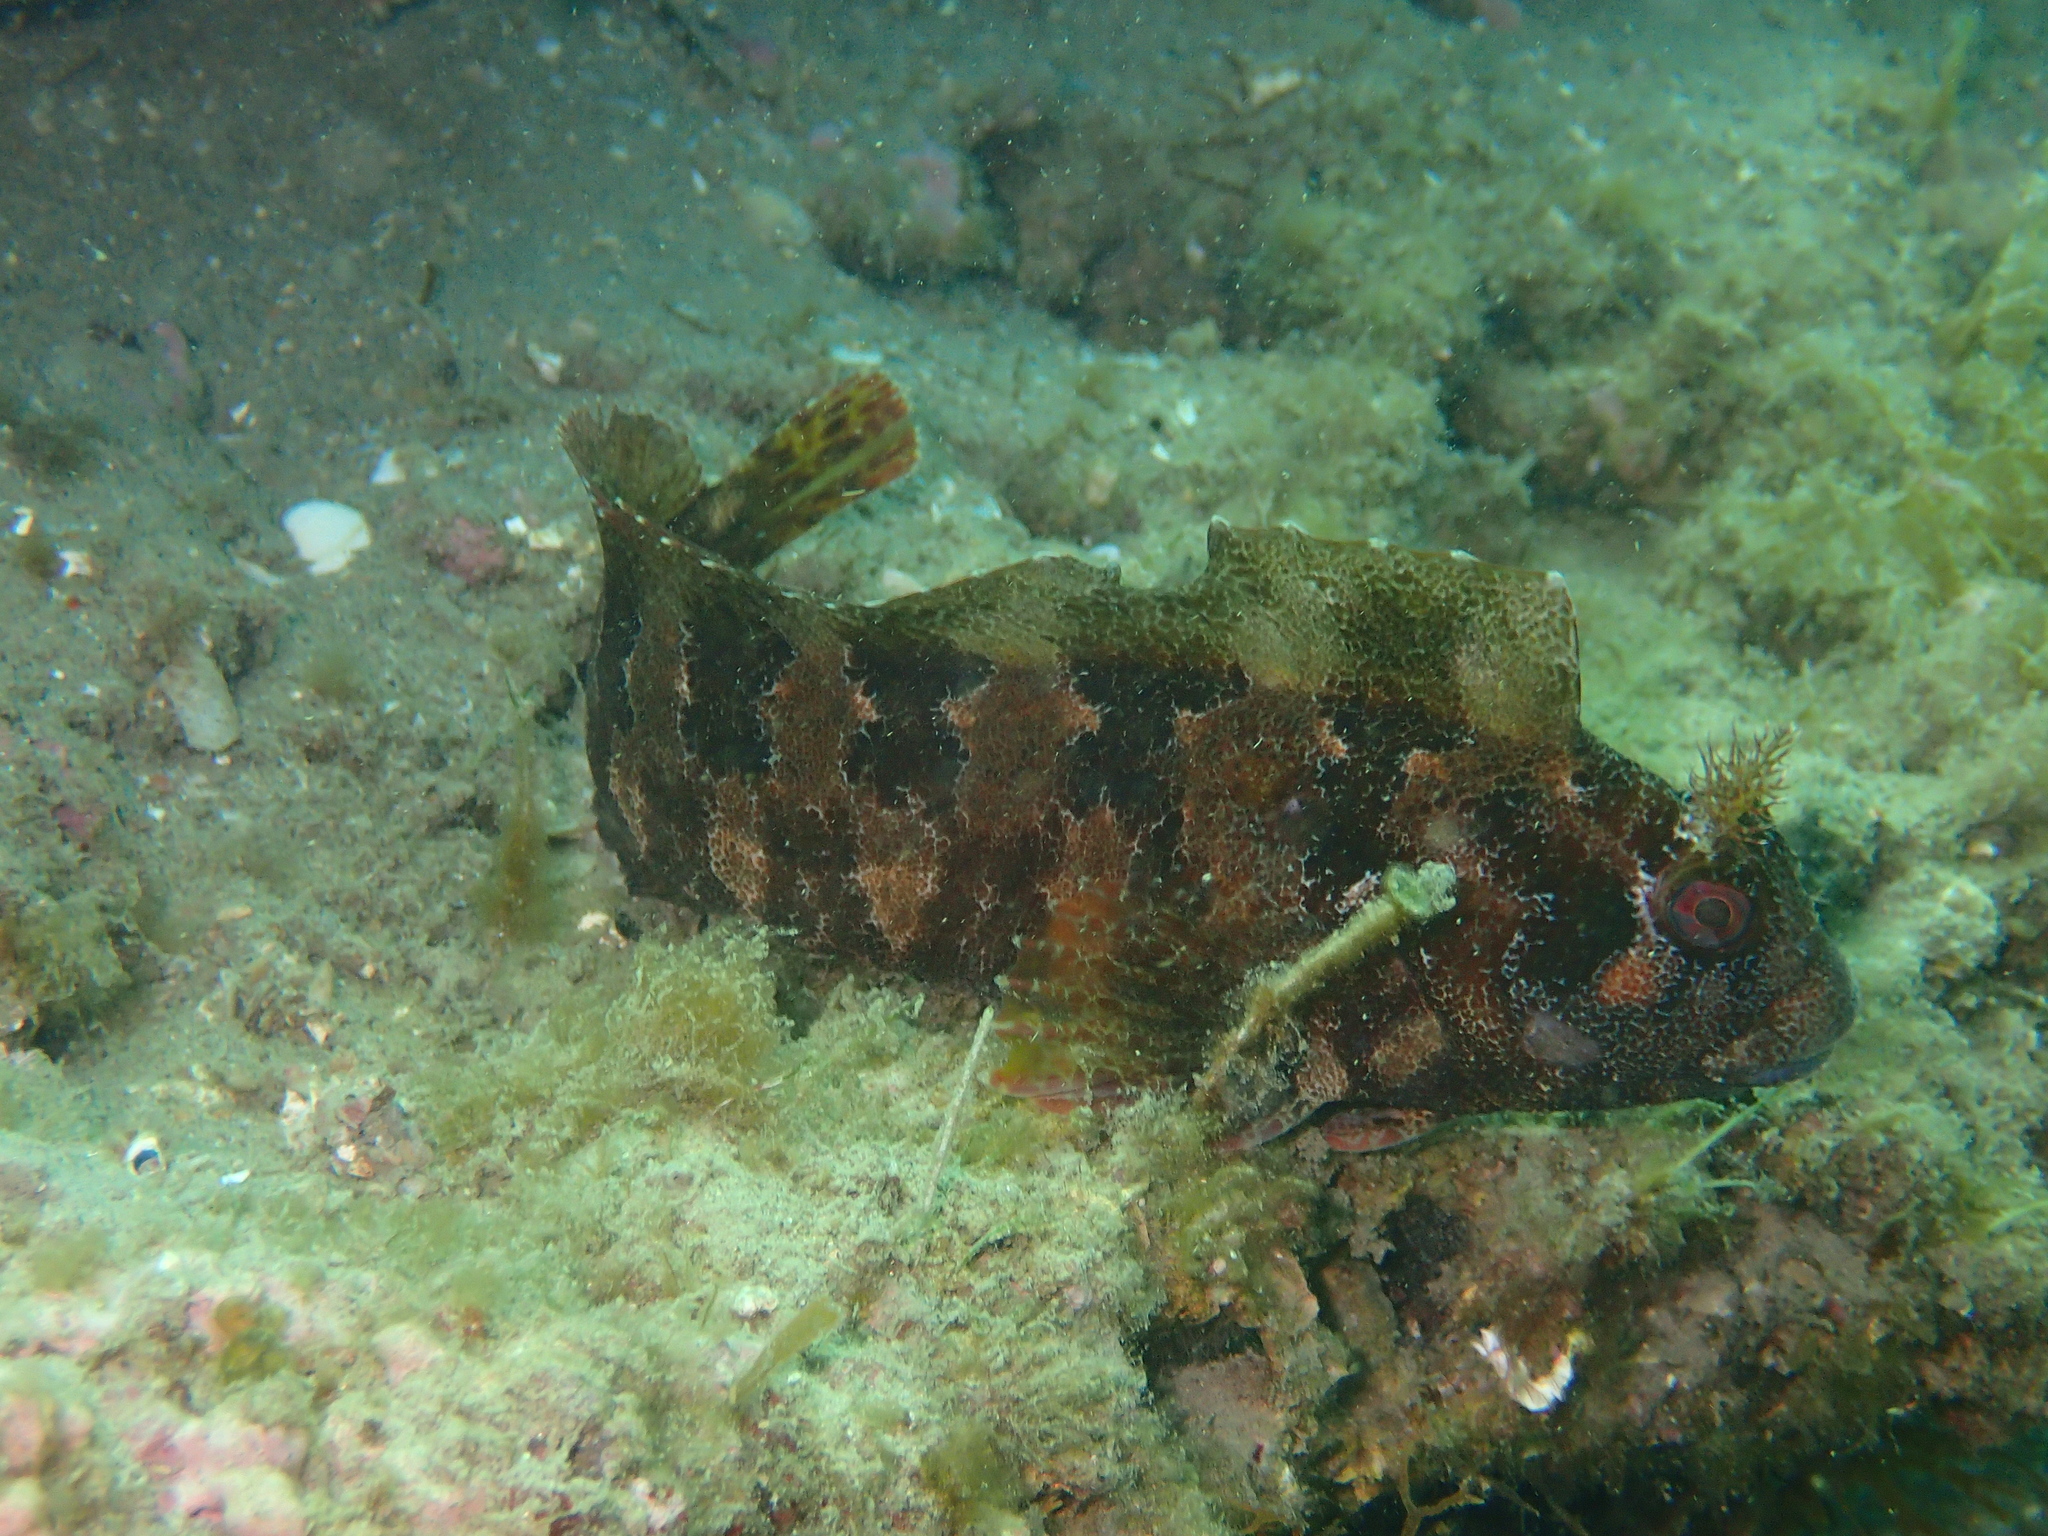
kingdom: Animalia
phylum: Chordata
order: Perciformes
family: Blenniidae
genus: Parablennius
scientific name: Parablennius gattorugine
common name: Tompot blenny
